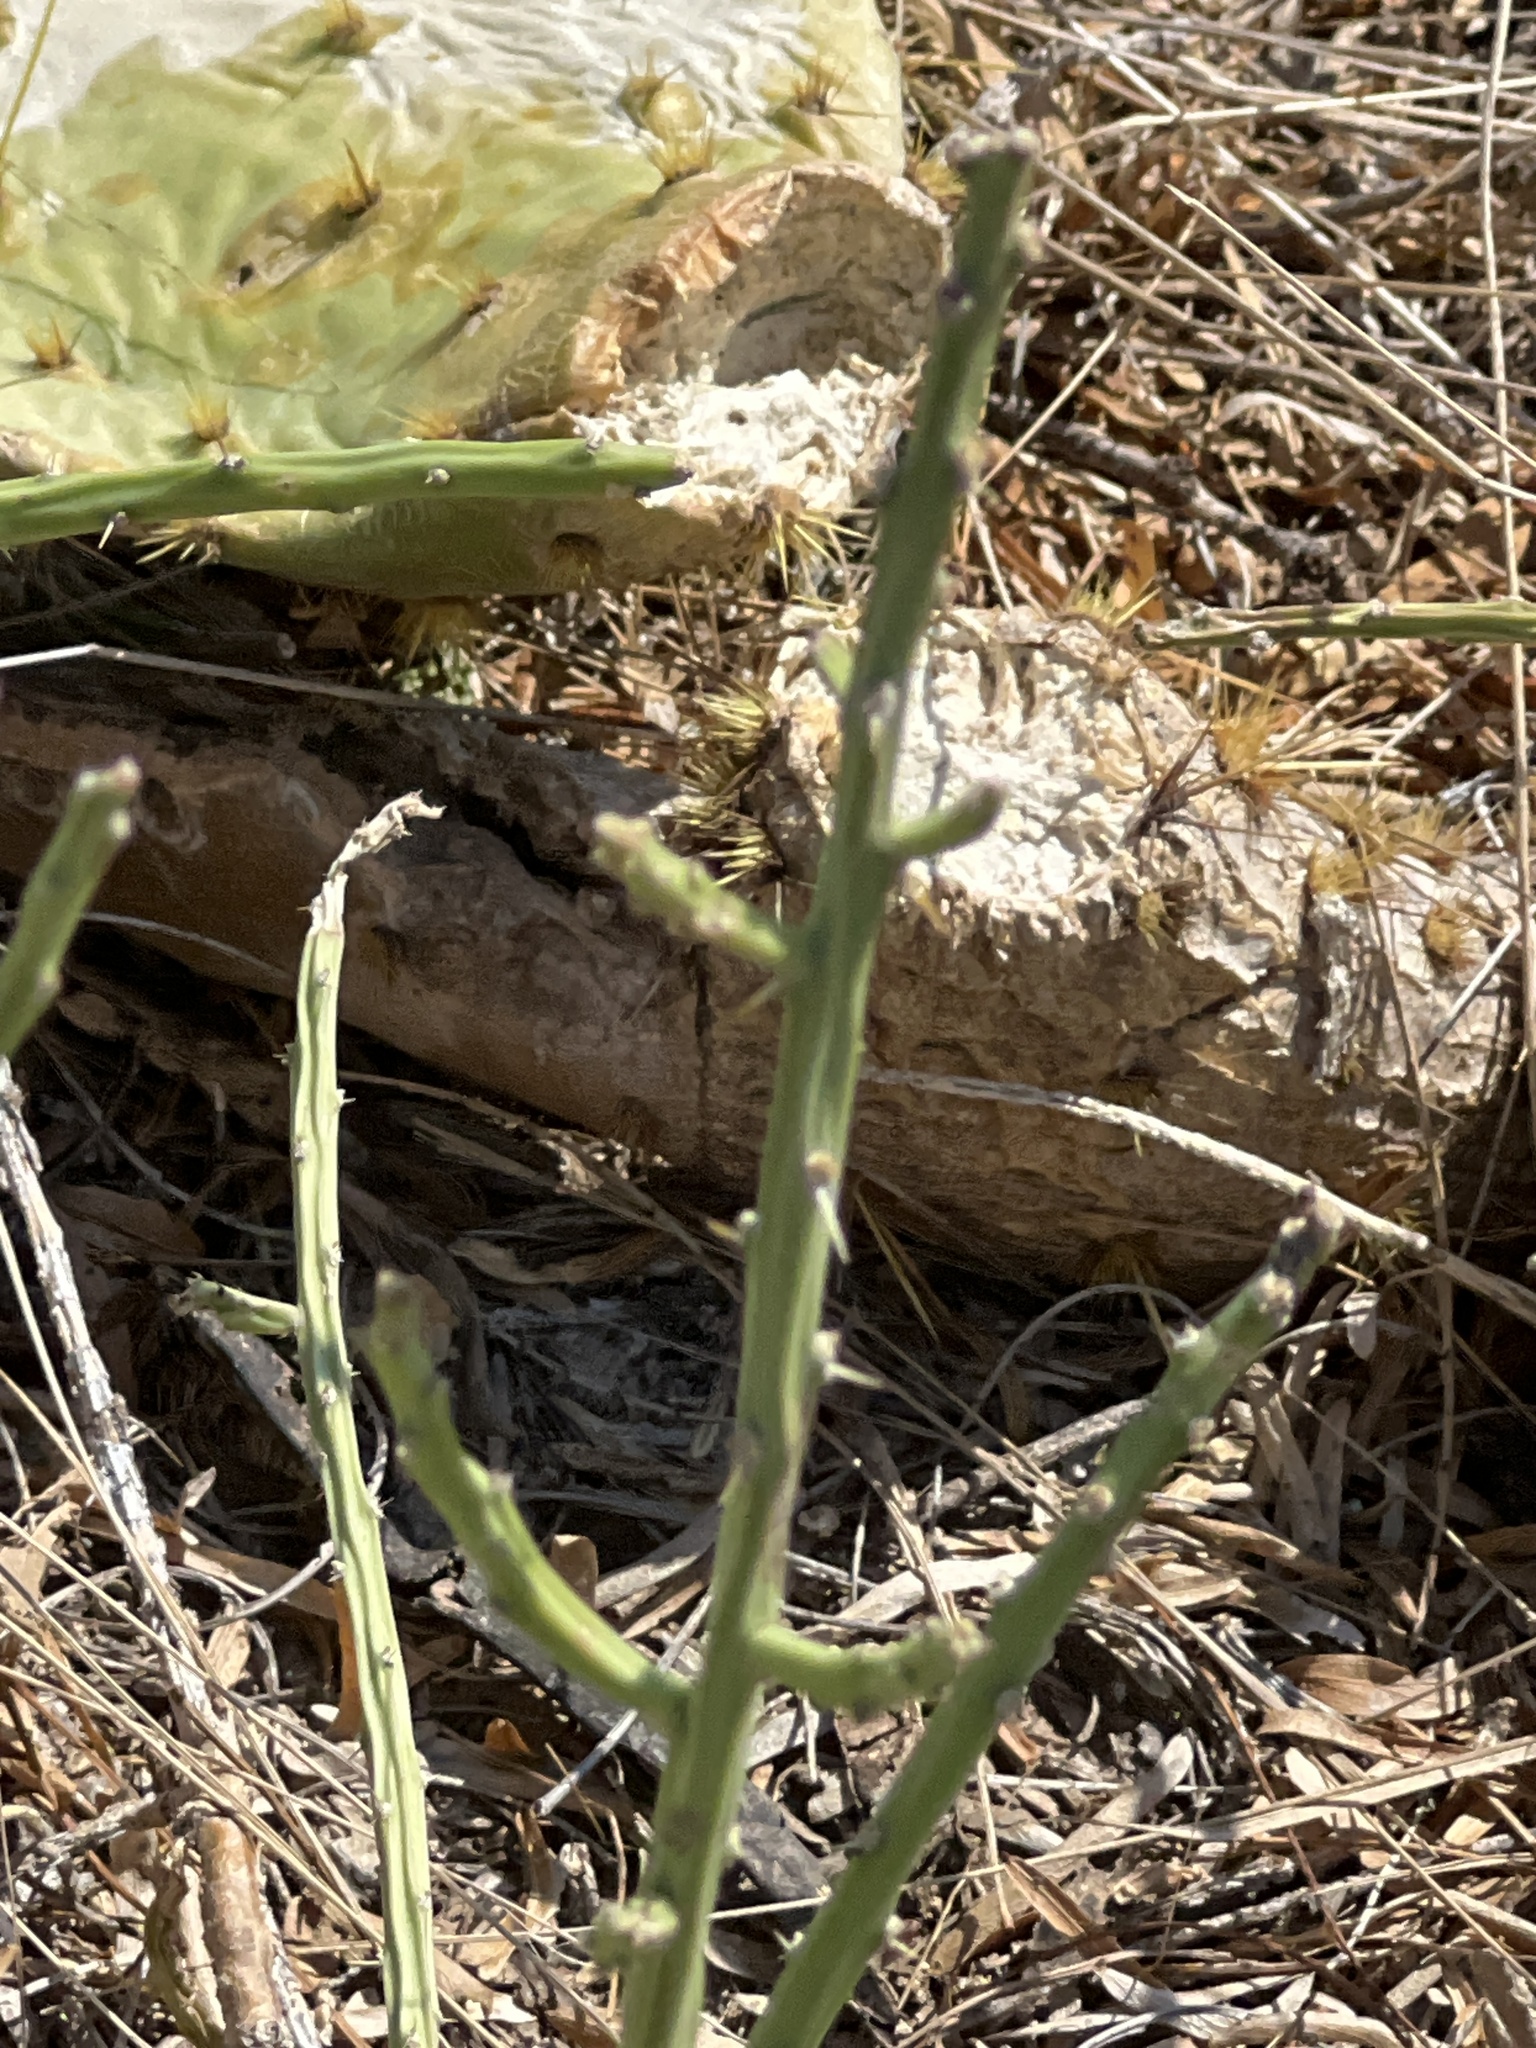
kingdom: Plantae
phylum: Tracheophyta
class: Magnoliopsida
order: Caryophyllales
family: Cactaceae
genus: Cylindropuntia
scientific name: Cylindropuntia leptocaulis
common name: Christmas cactus
